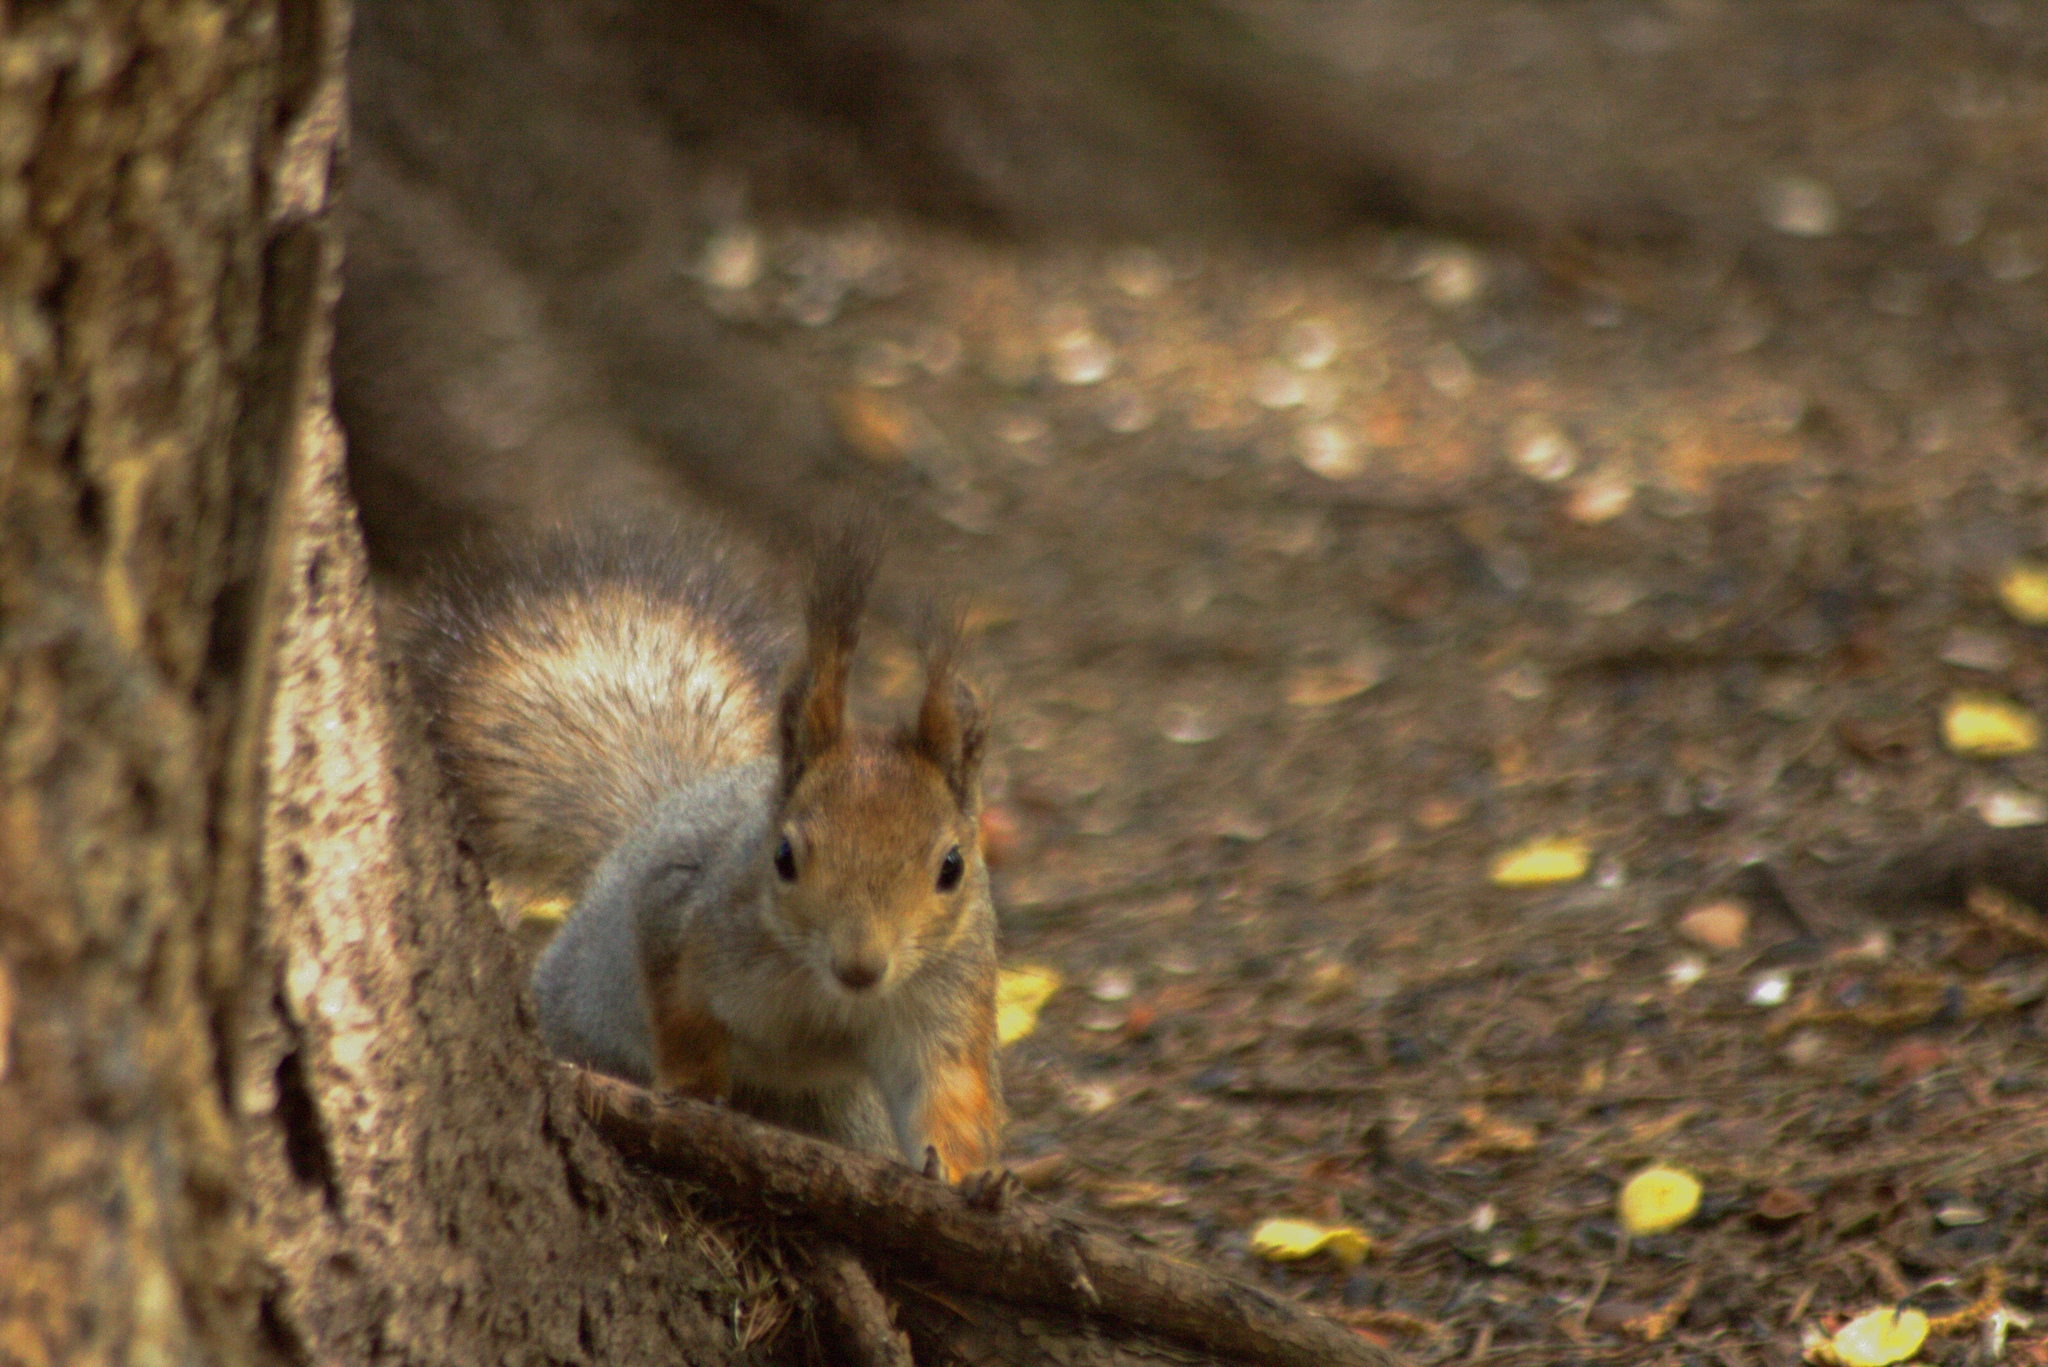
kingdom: Animalia
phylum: Chordata
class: Mammalia
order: Rodentia
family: Sciuridae
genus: Sciurus
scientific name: Sciurus vulgaris
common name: Eurasian red squirrel
